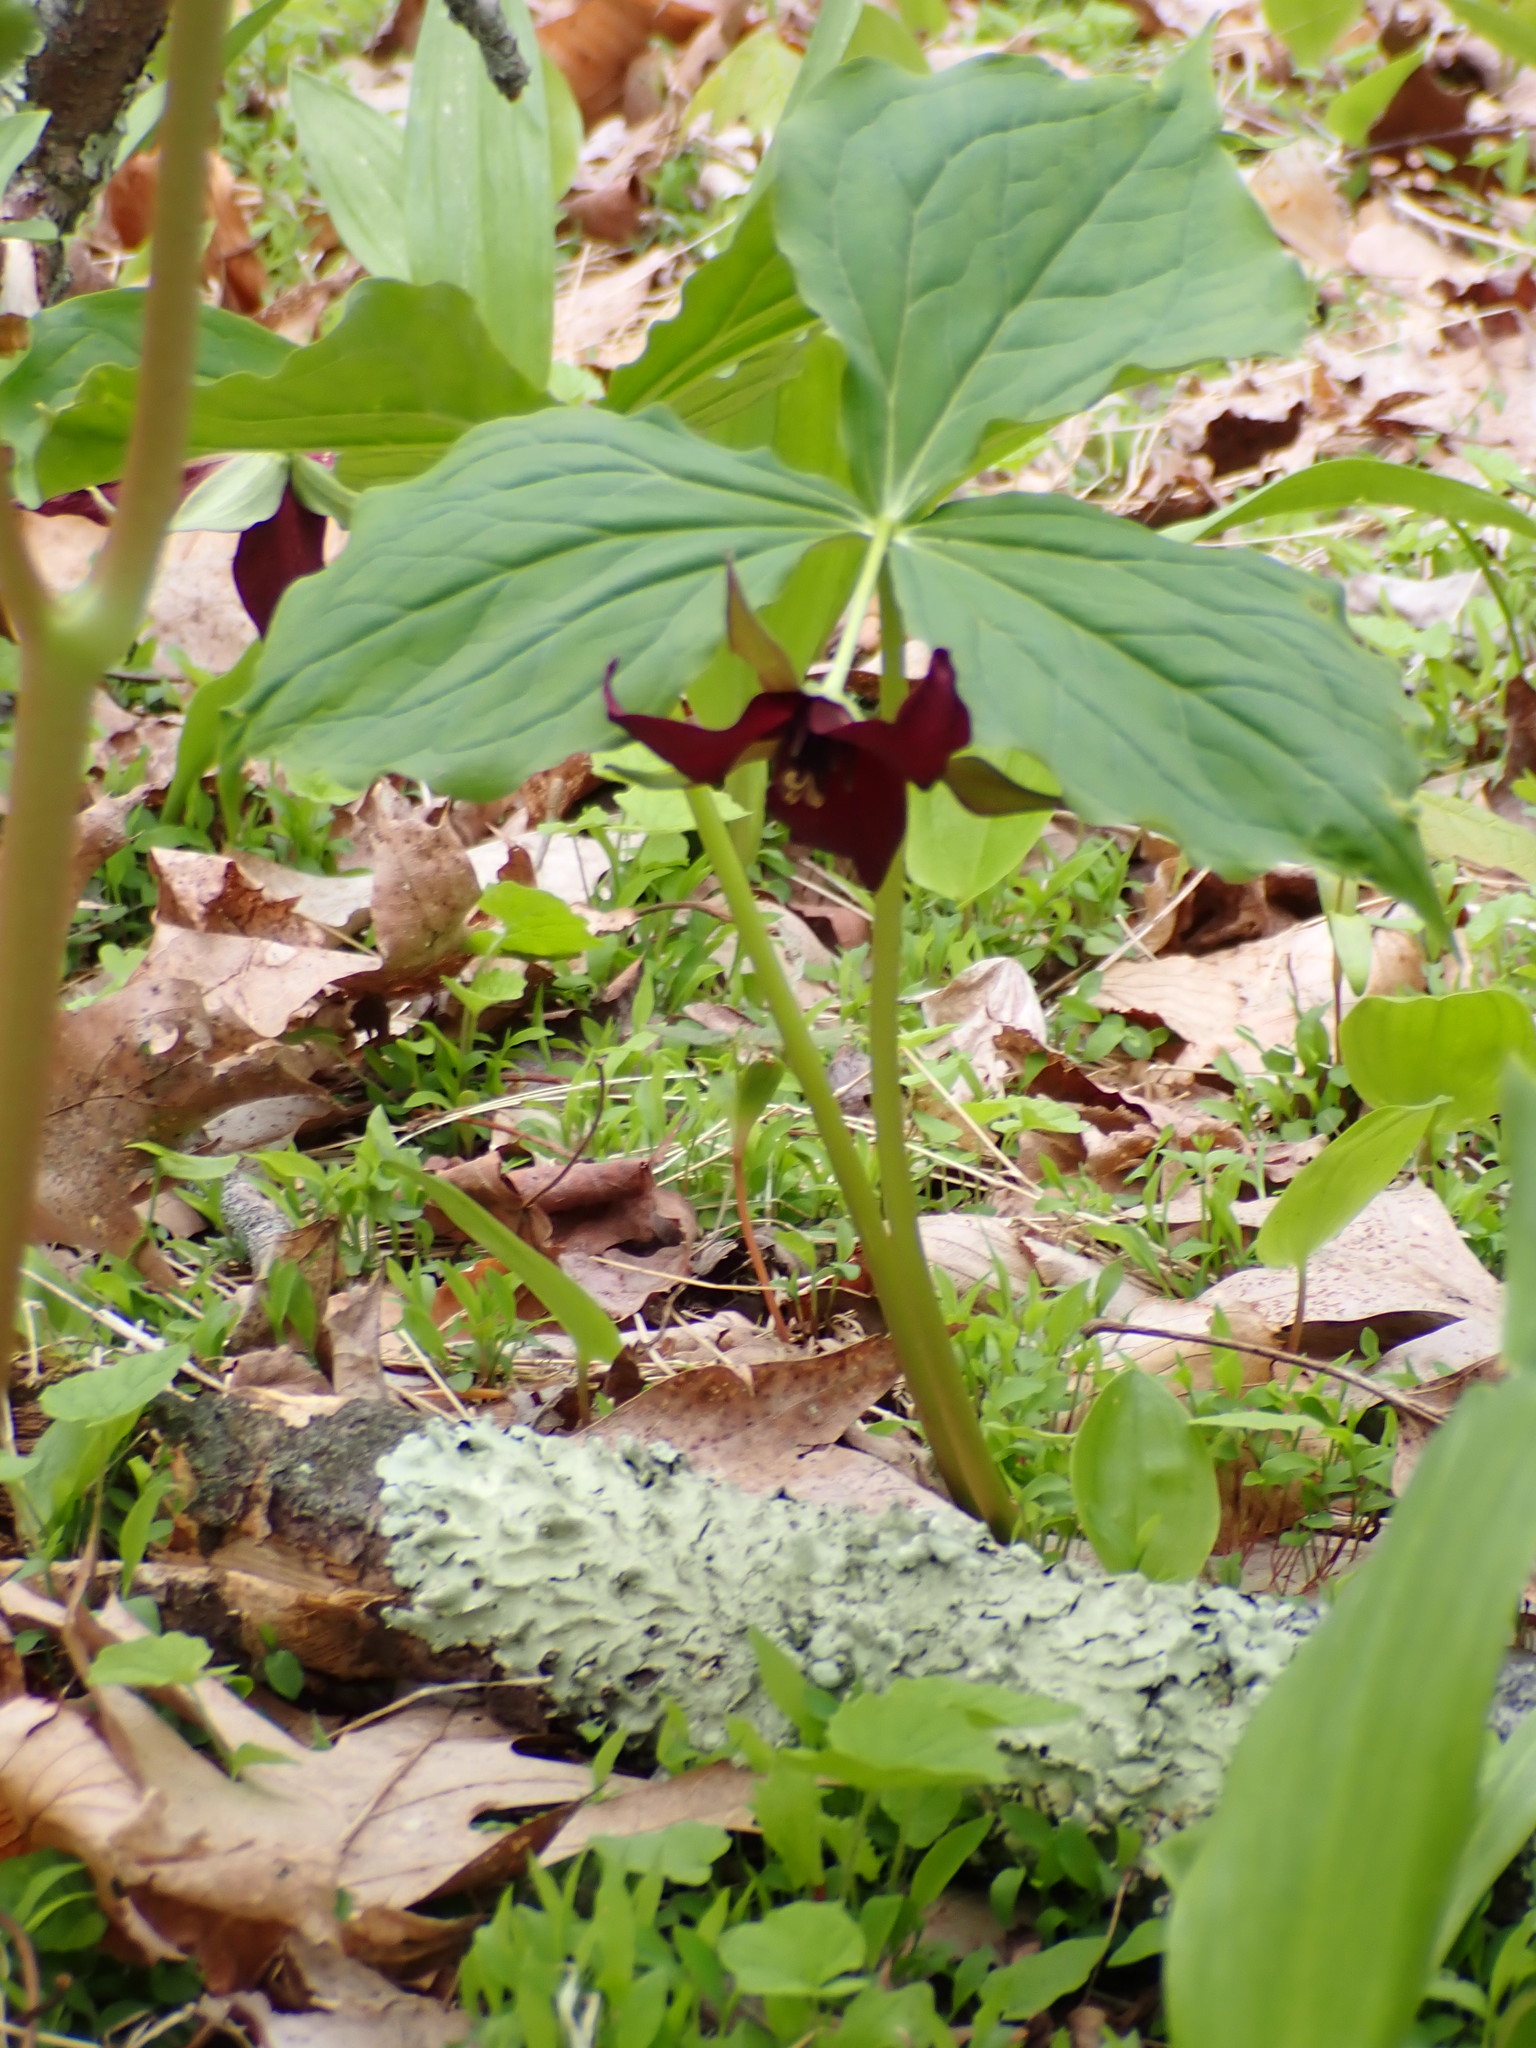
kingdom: Plantae
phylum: Tracheophyta
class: Liliopsida
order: Liliales
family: Melanthiaceae
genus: Trillium
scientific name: Trillium erectum
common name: Purple trillium
